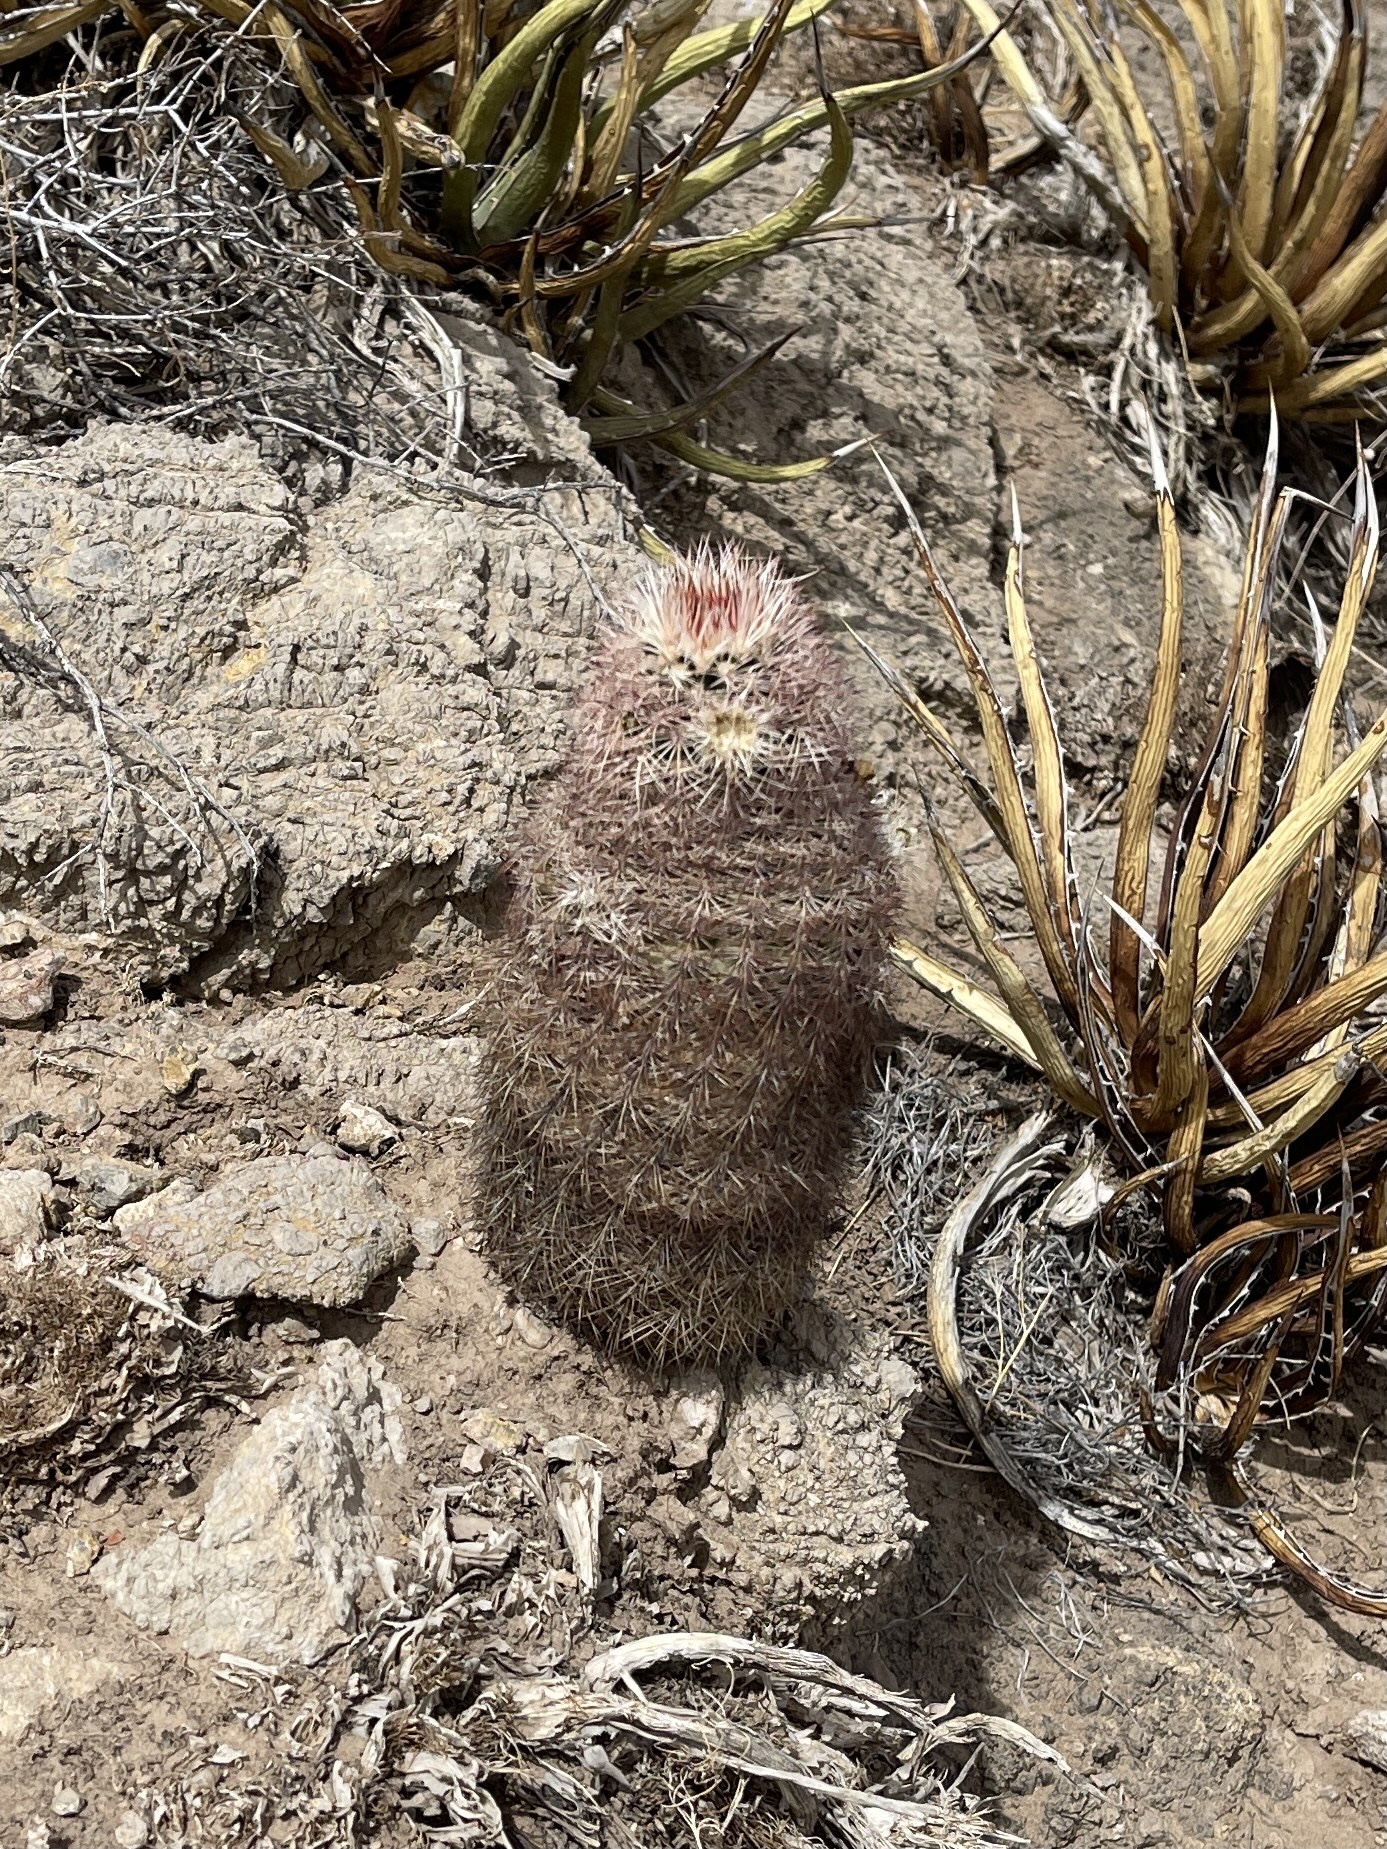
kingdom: Plantae
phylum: Tracheophyta
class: Magnoliopsida
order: Caryophyllales
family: Cactaceae
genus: Echinocereus
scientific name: Echinocereus dasyacanthus
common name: Spiny hedgehog cactus
